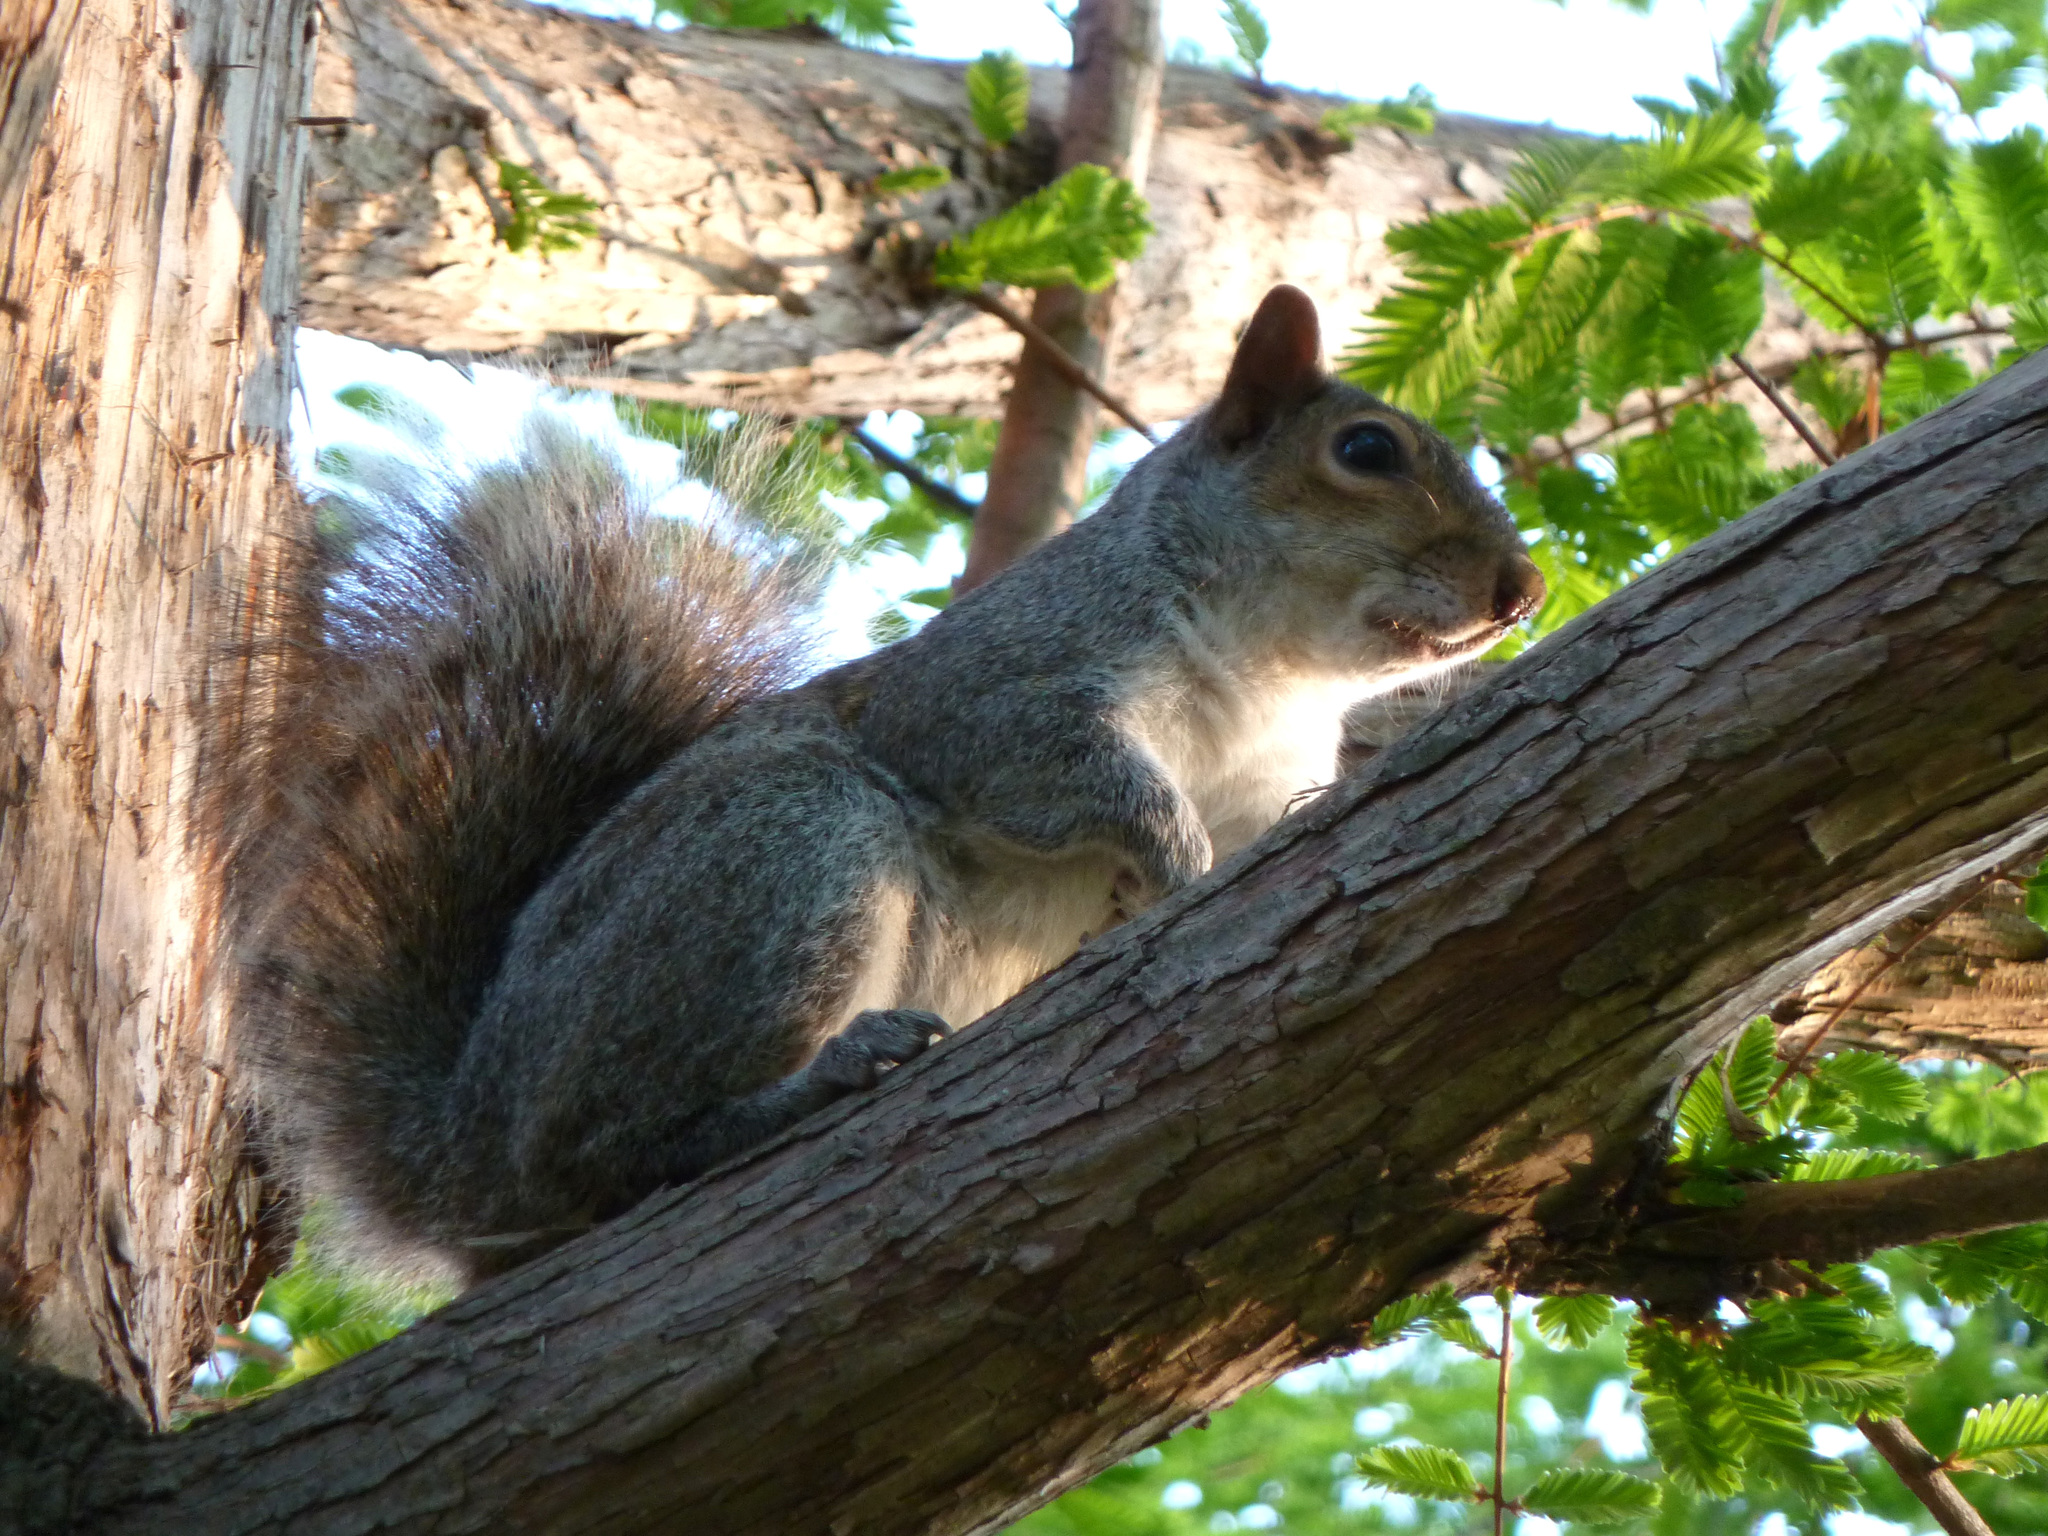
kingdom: Animalia
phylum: Chordata
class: Mammalia
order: Rodentia
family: Sciuridae
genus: Sciurus
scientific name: Sciurus carolinensis
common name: Eastern gray squirrel
